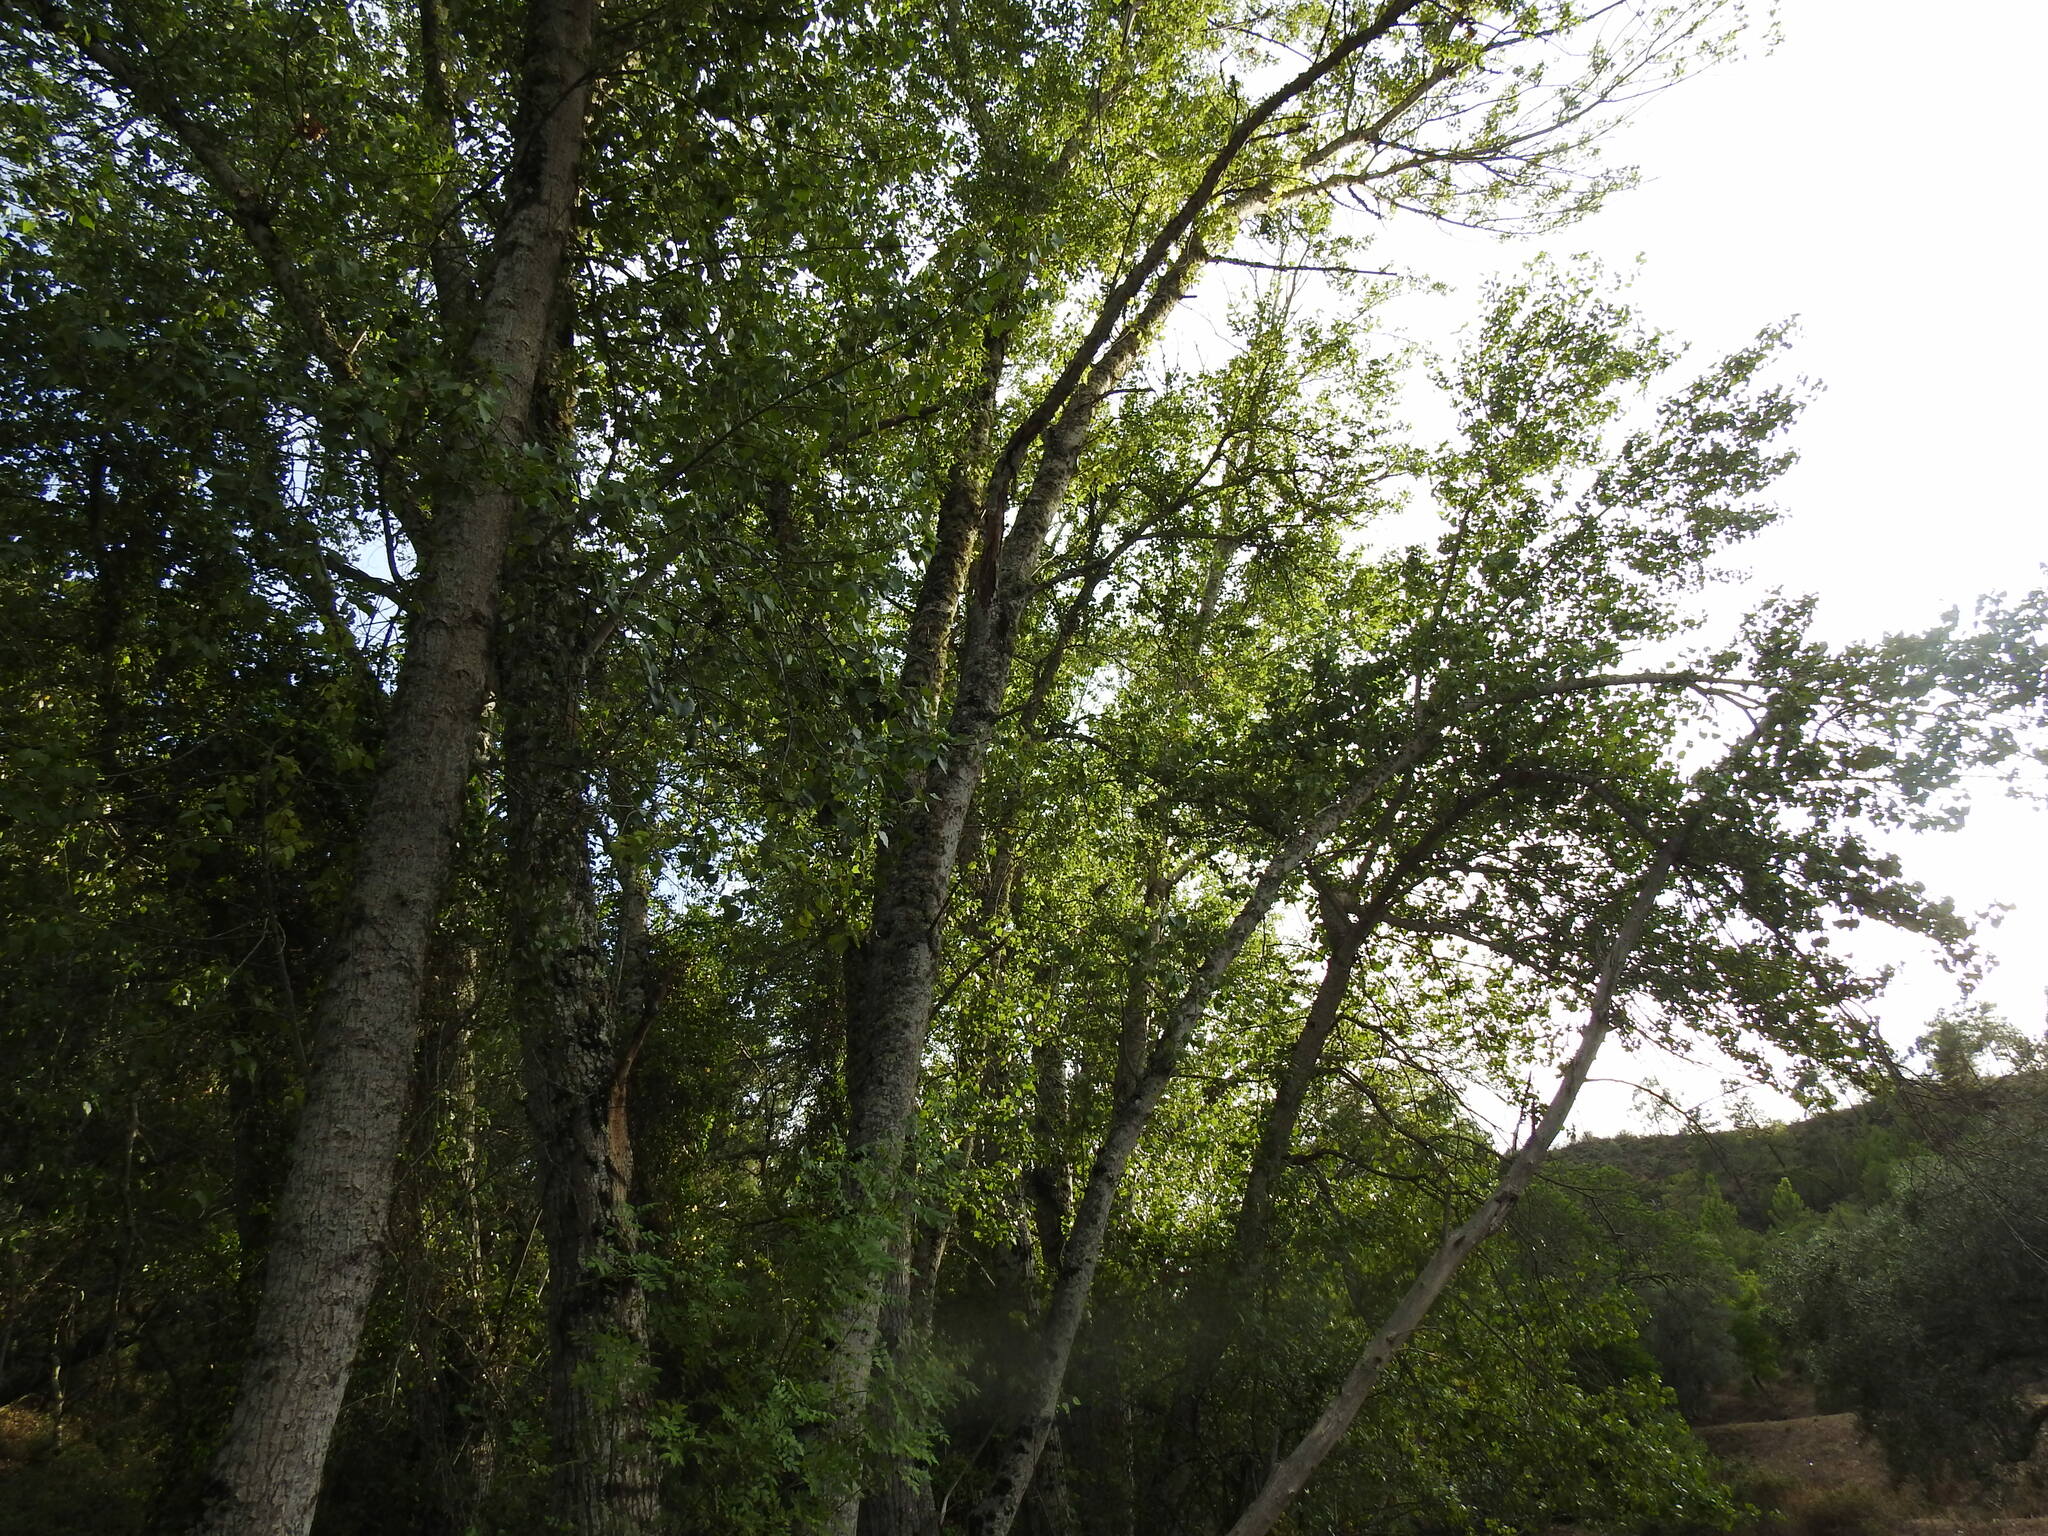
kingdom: Plantae
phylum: Tracheophyta
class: Magnoliopsida
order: Malpighiales
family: Salicaceae
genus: Populus
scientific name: Populus nigra
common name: Black poplar
